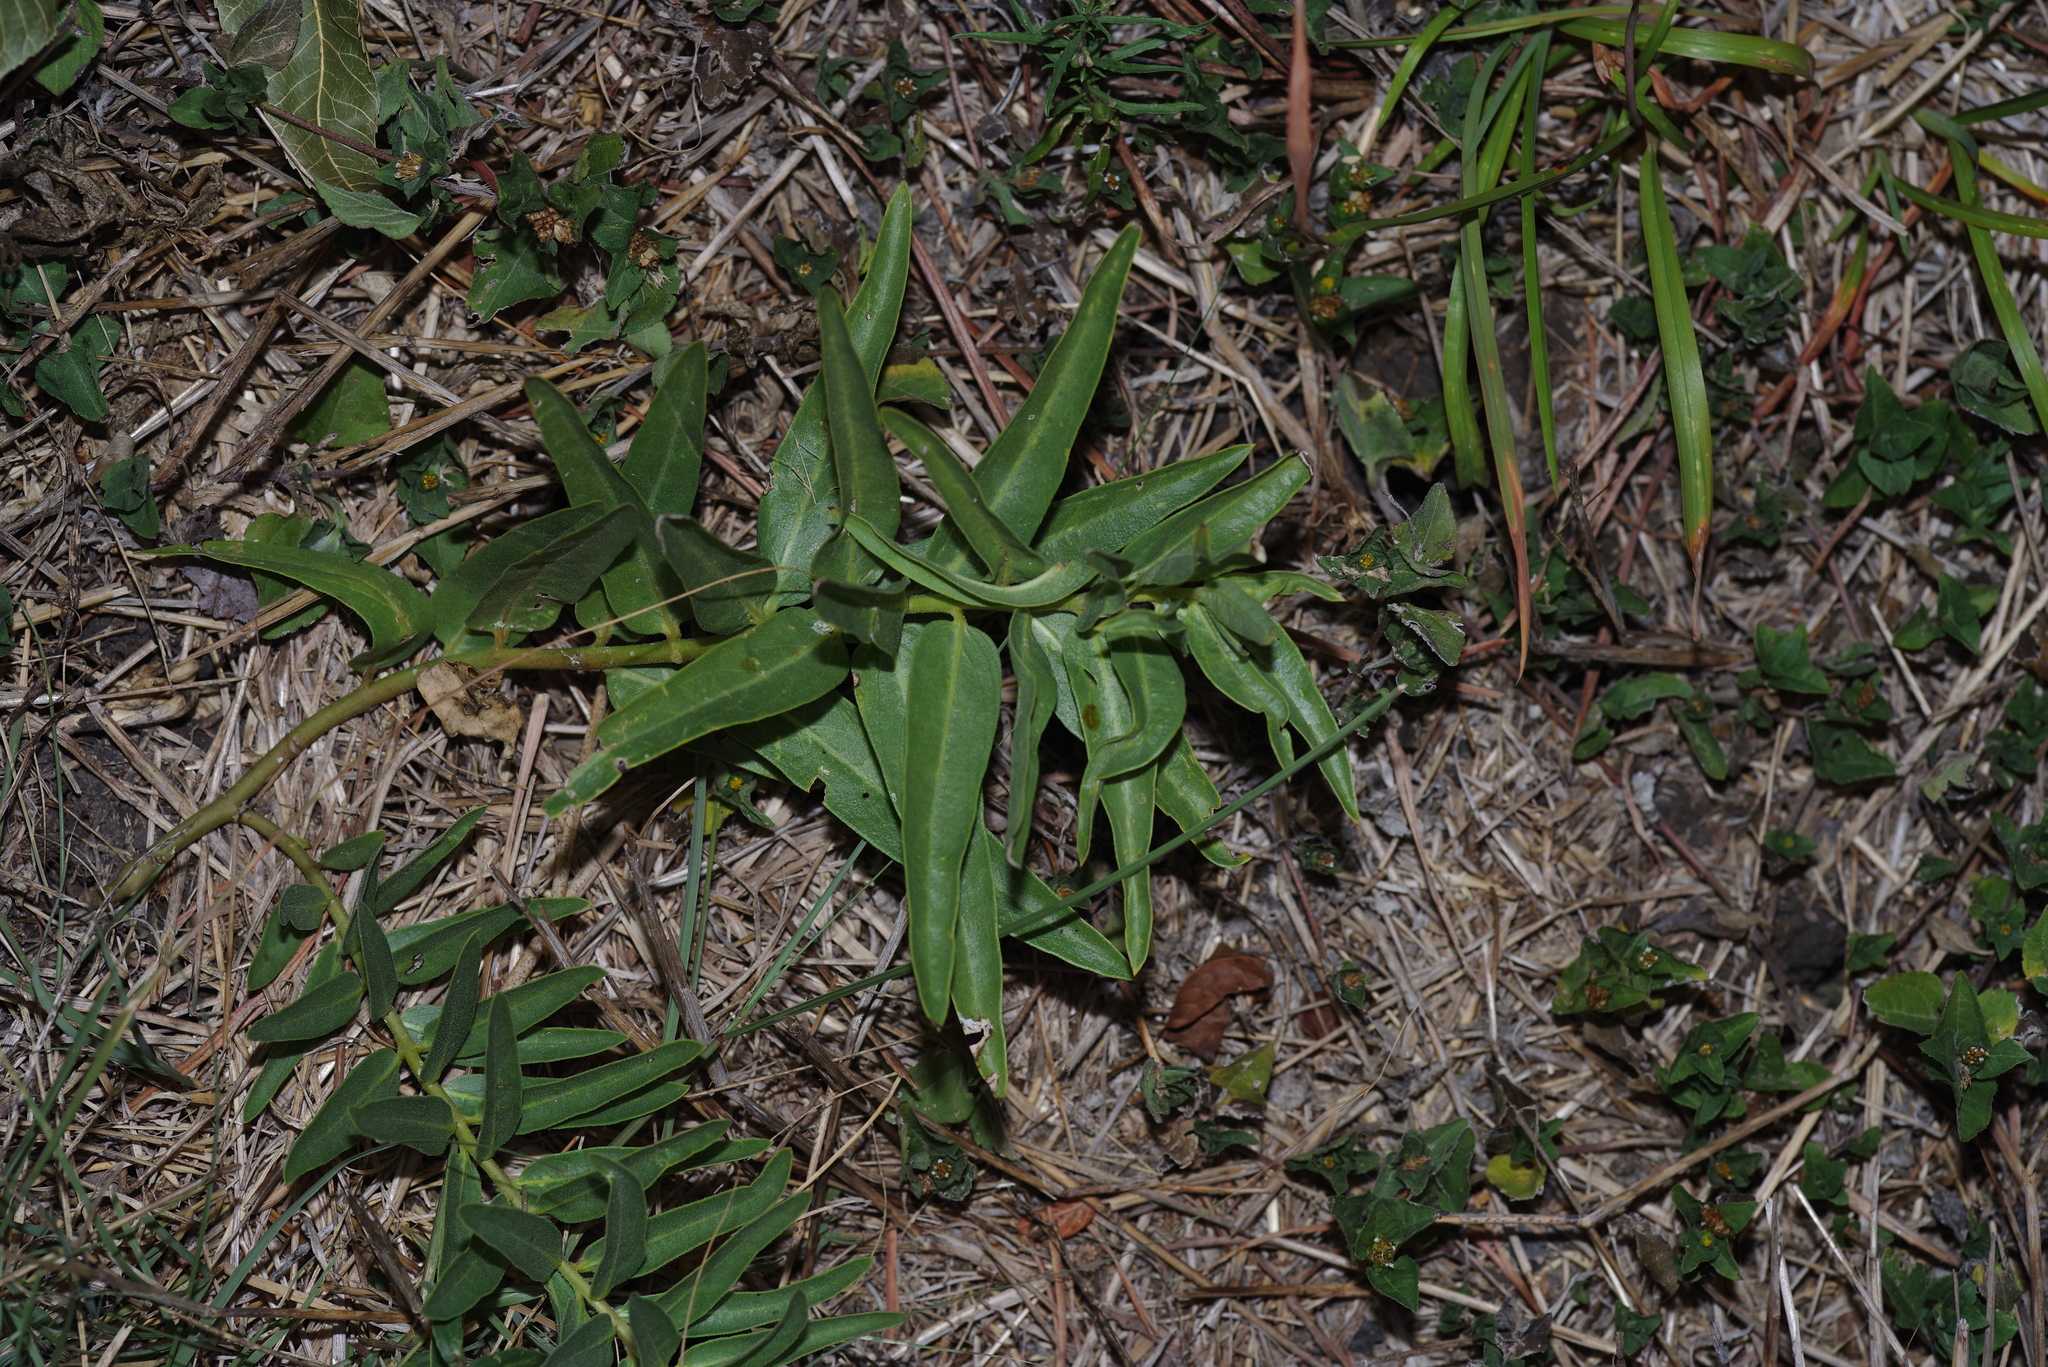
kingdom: Plantae
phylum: Tracheophyta
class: Magnoliopsida
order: Gentianales
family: Apocynaceae
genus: Asclepias
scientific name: Asclepias asperula
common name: Antelope horns
